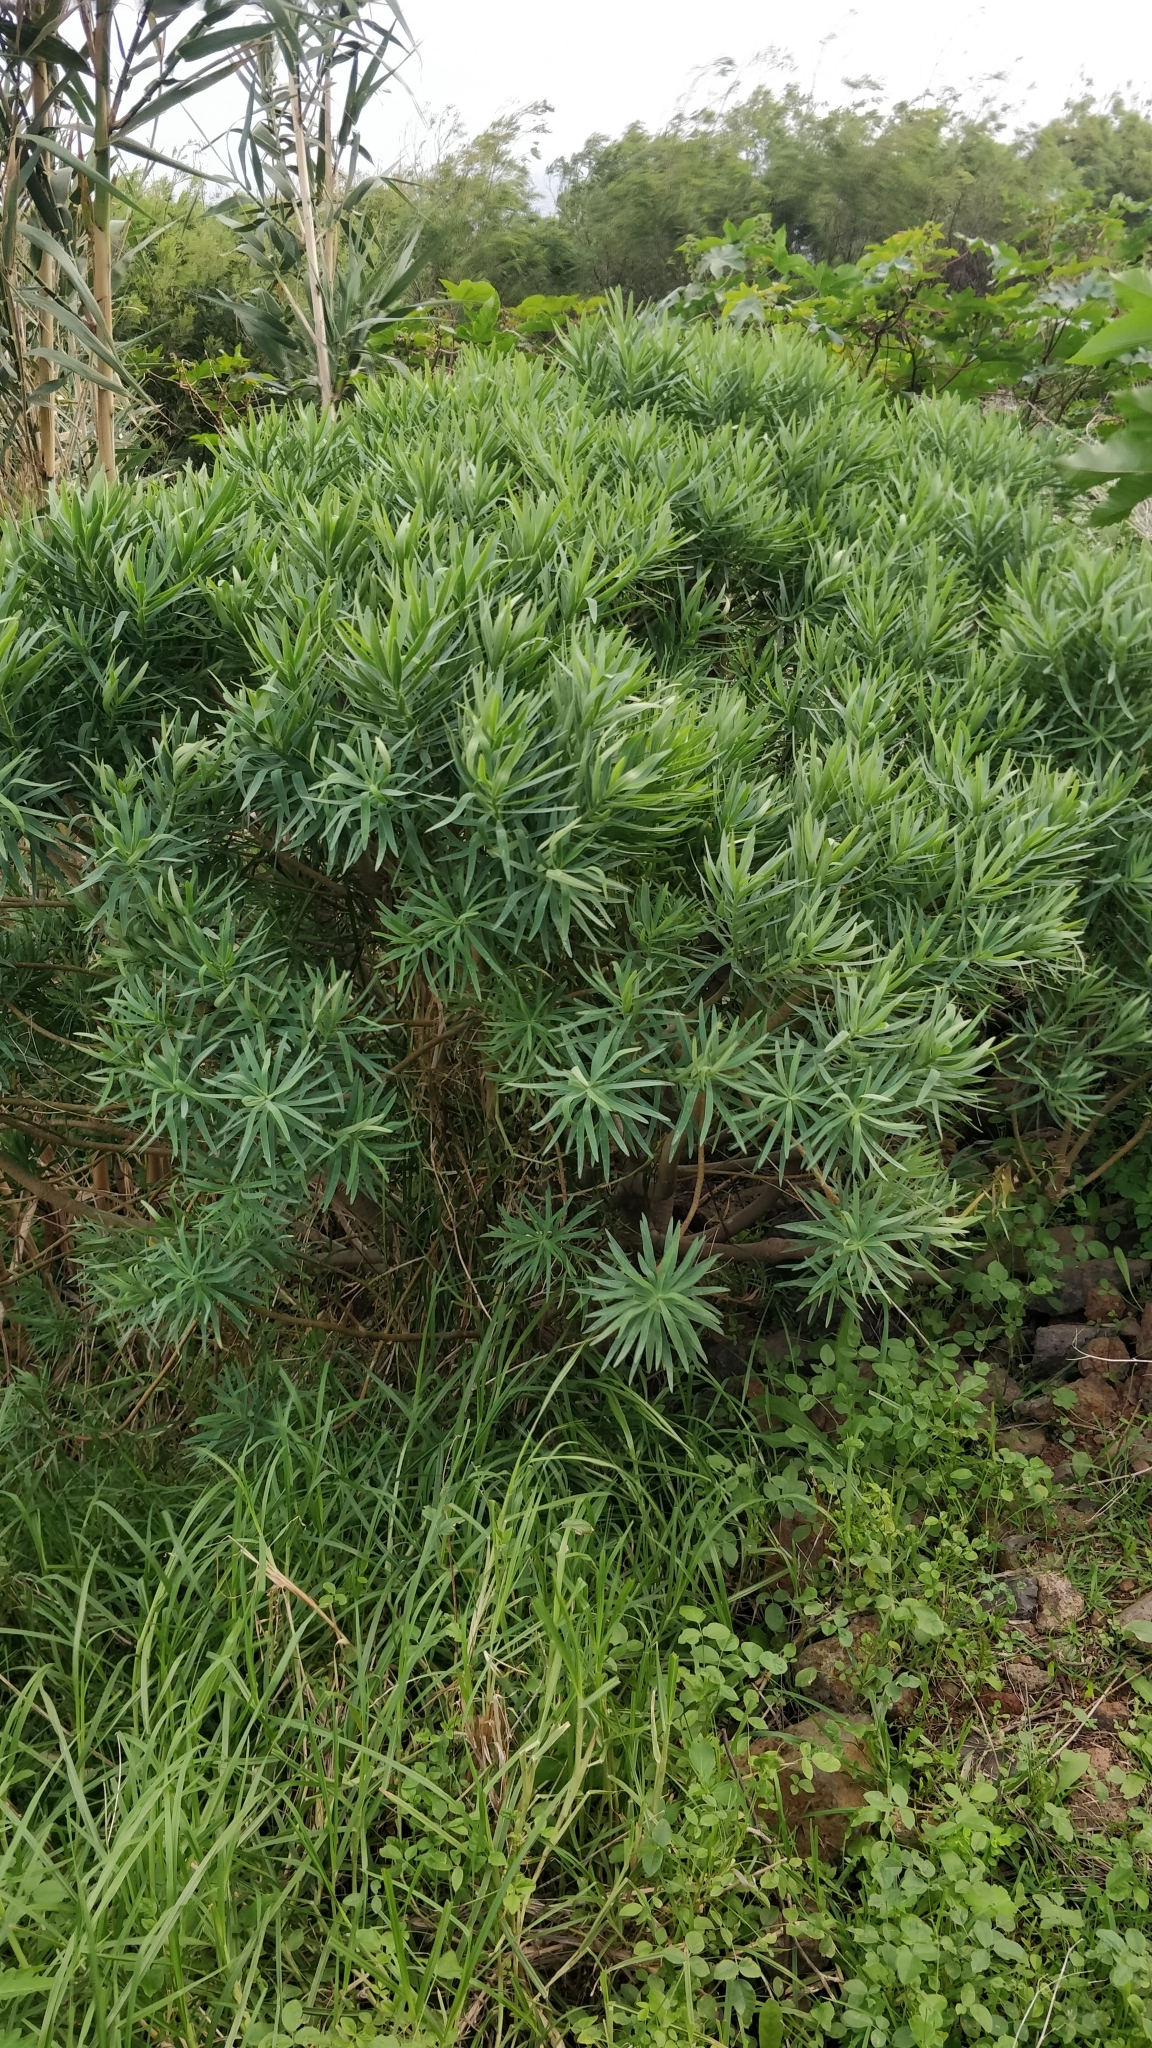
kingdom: Plantae
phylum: Tracheophyta
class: Magnoliopsida
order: Malpighiales
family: Euphorbiaceae
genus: Euphorbia
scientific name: Euphorbia piscatoria
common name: Fish-stunning spurge
